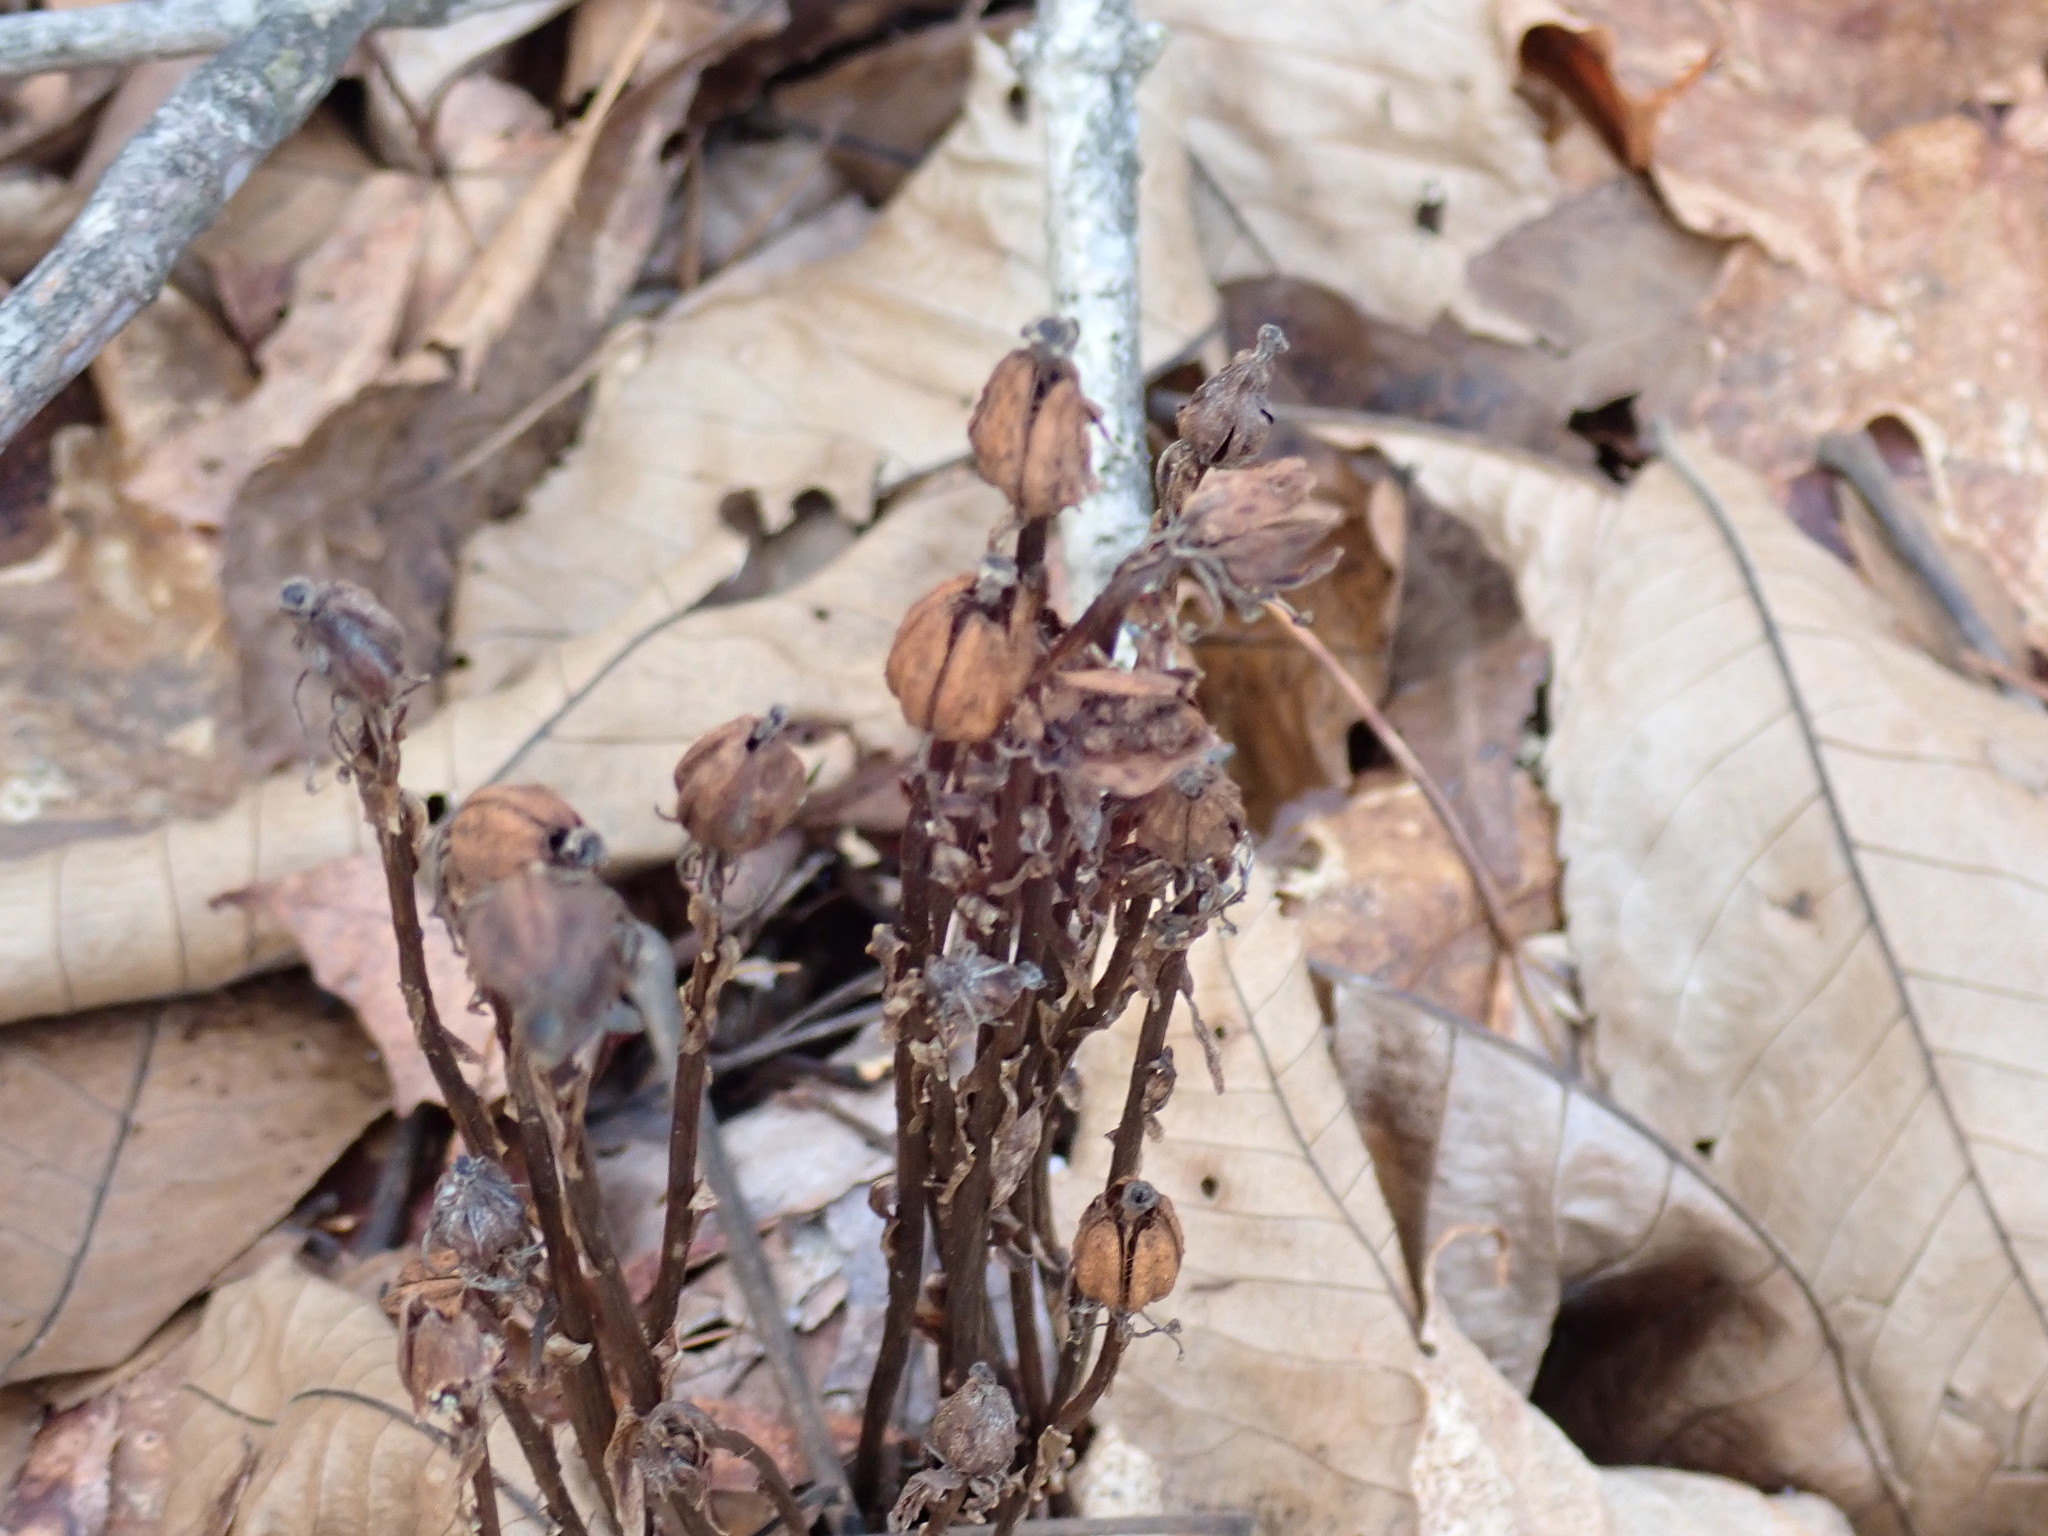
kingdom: Plantae
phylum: Tracheophyta
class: Magnoliopsida
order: Ericales
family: Ericaceae
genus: Monotropa
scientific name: Monotropa uniflora
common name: Convulsion root
